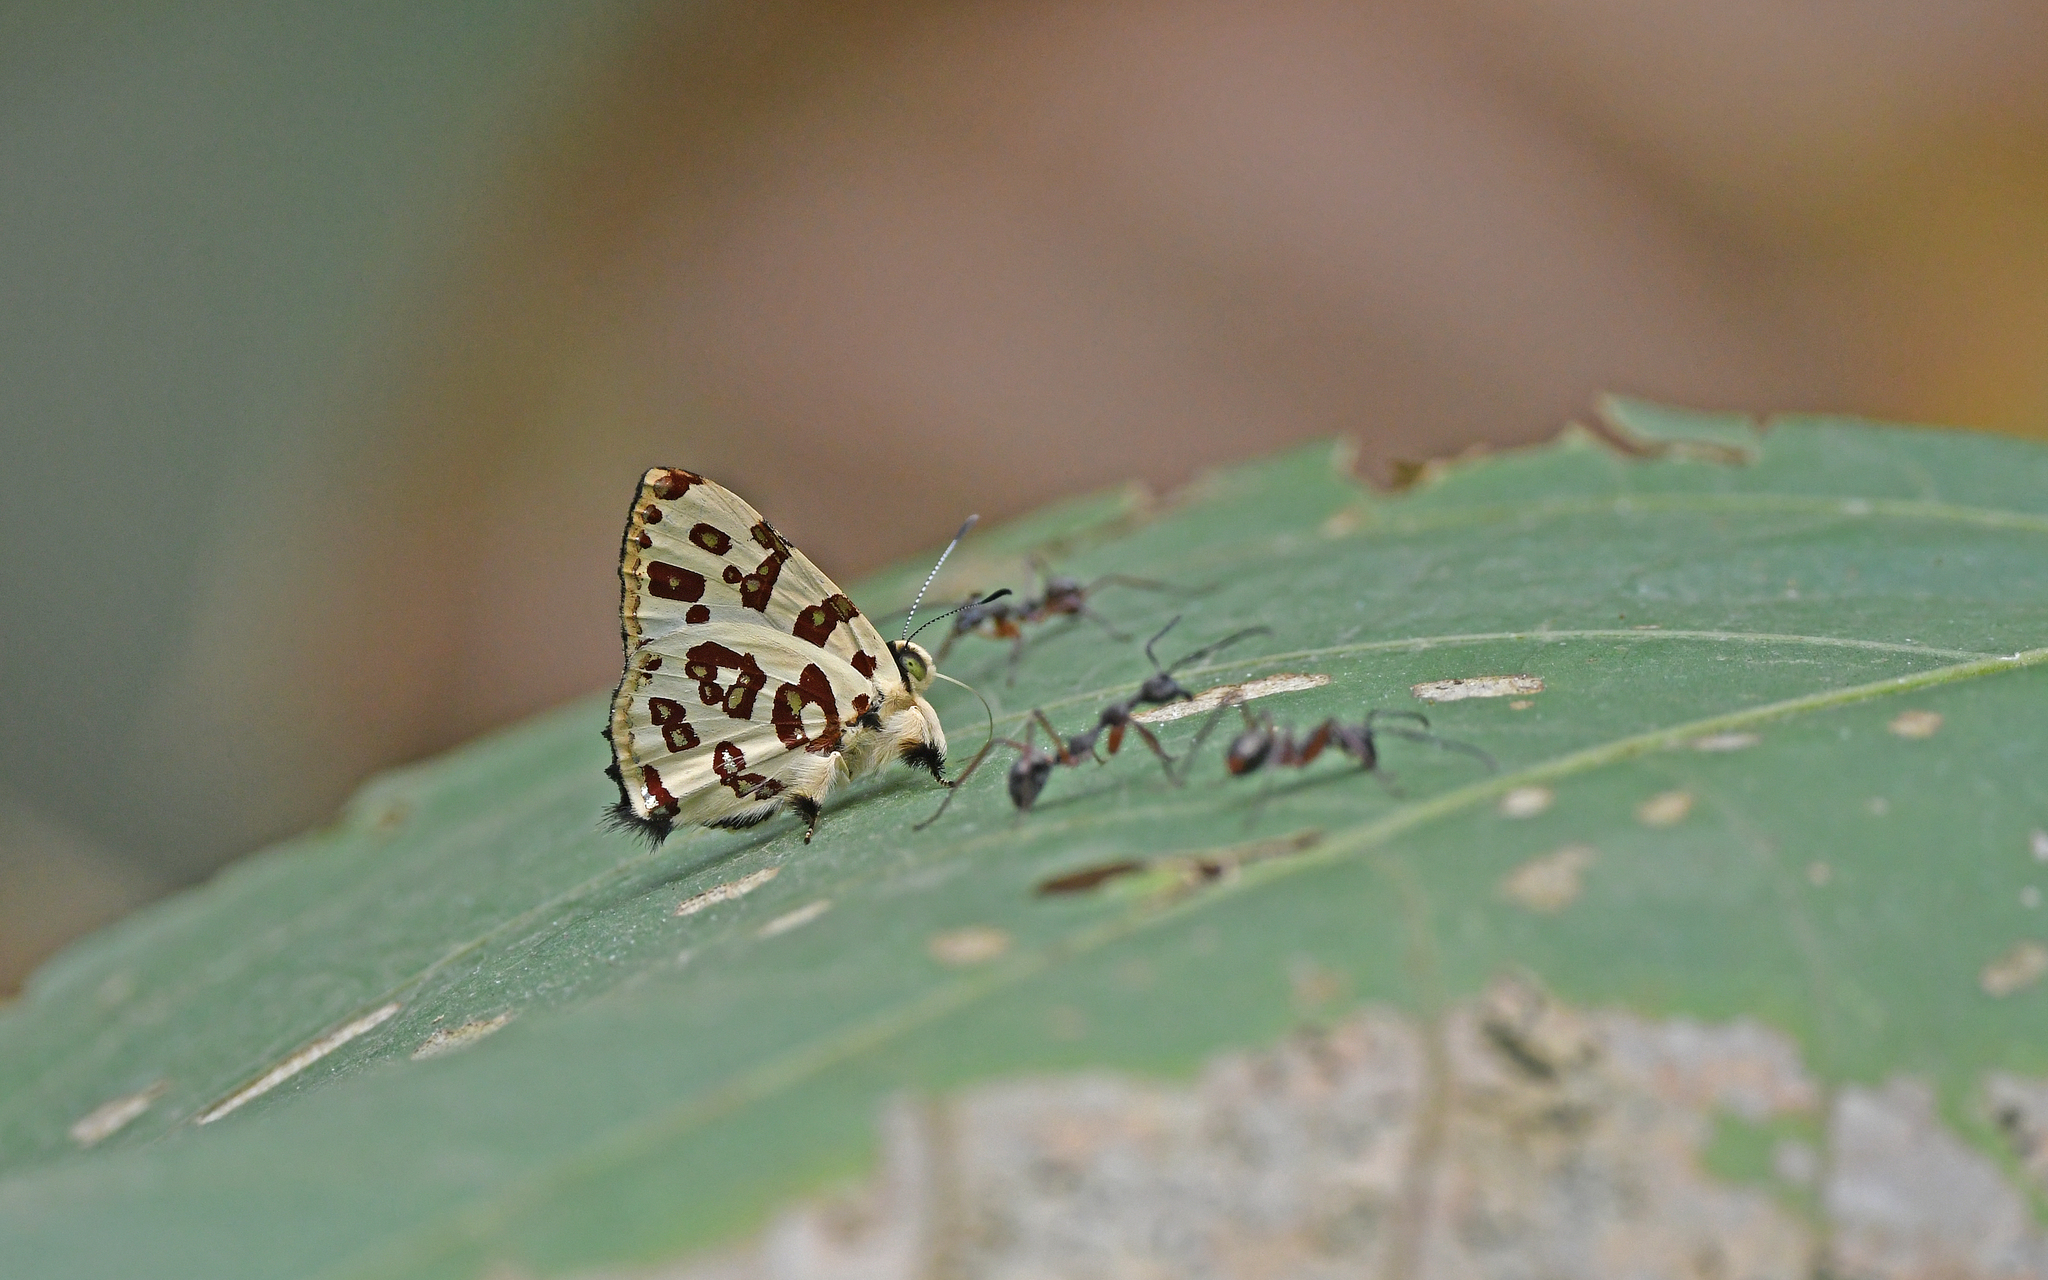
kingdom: Animalia
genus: Anteros
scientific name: Anteros bracteatus
